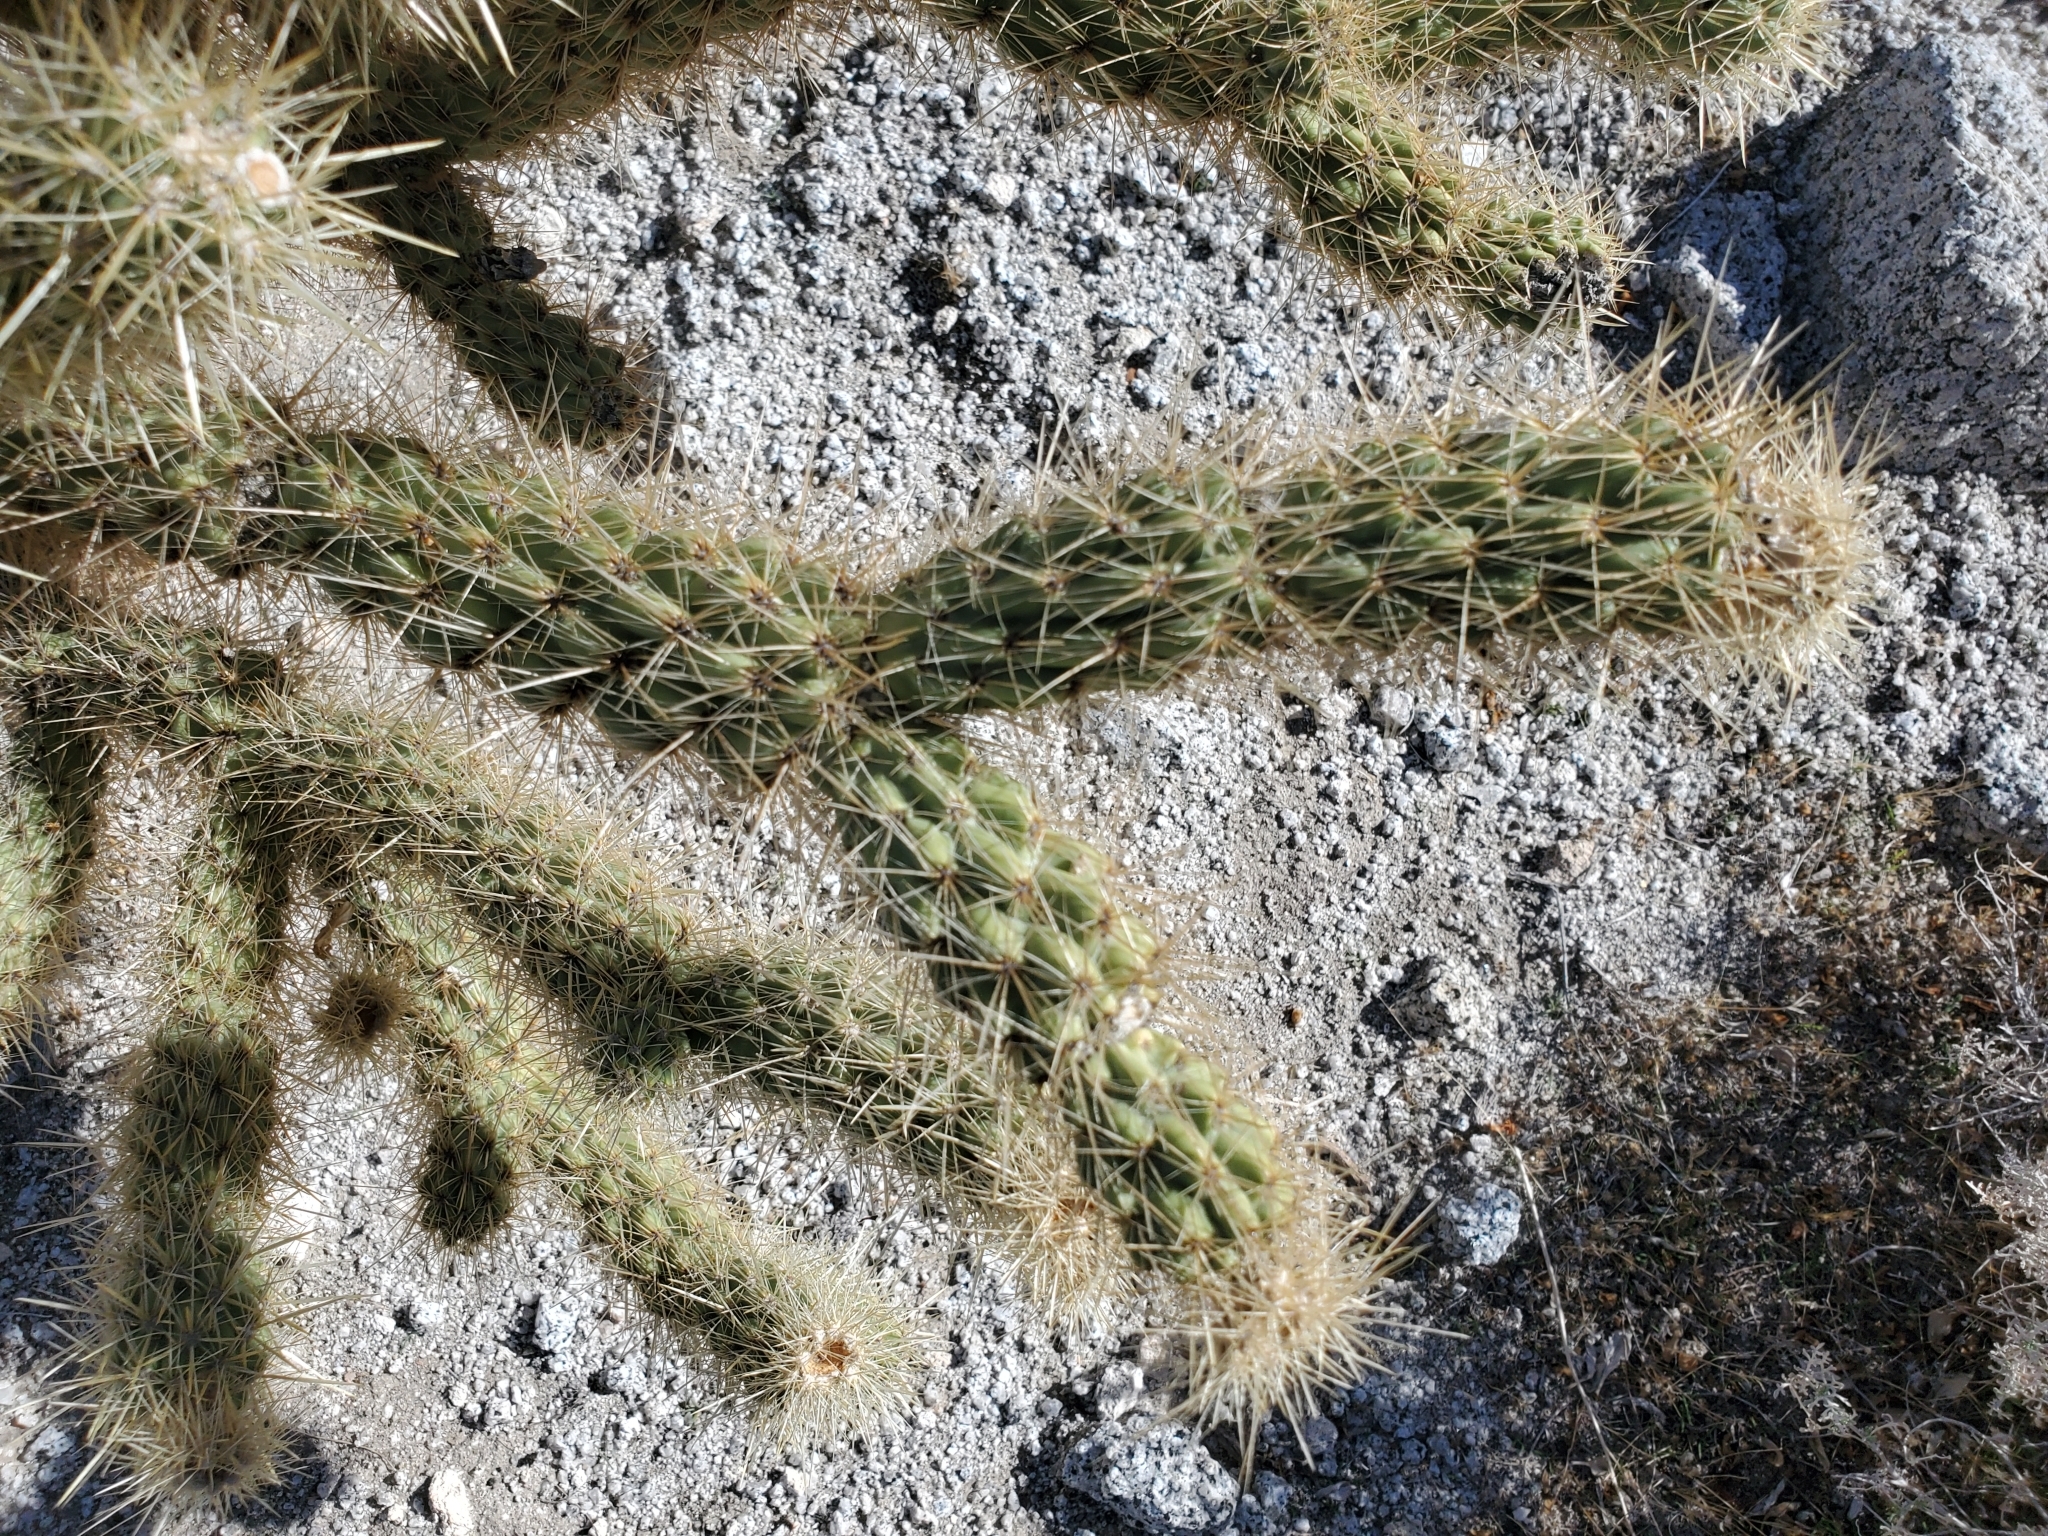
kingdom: Plantae
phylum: Tracheophyta
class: Magnoliopsida
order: Caryophyllales
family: Cactaceae
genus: Cylindropuntia
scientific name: Cylindropuntia ganderi
